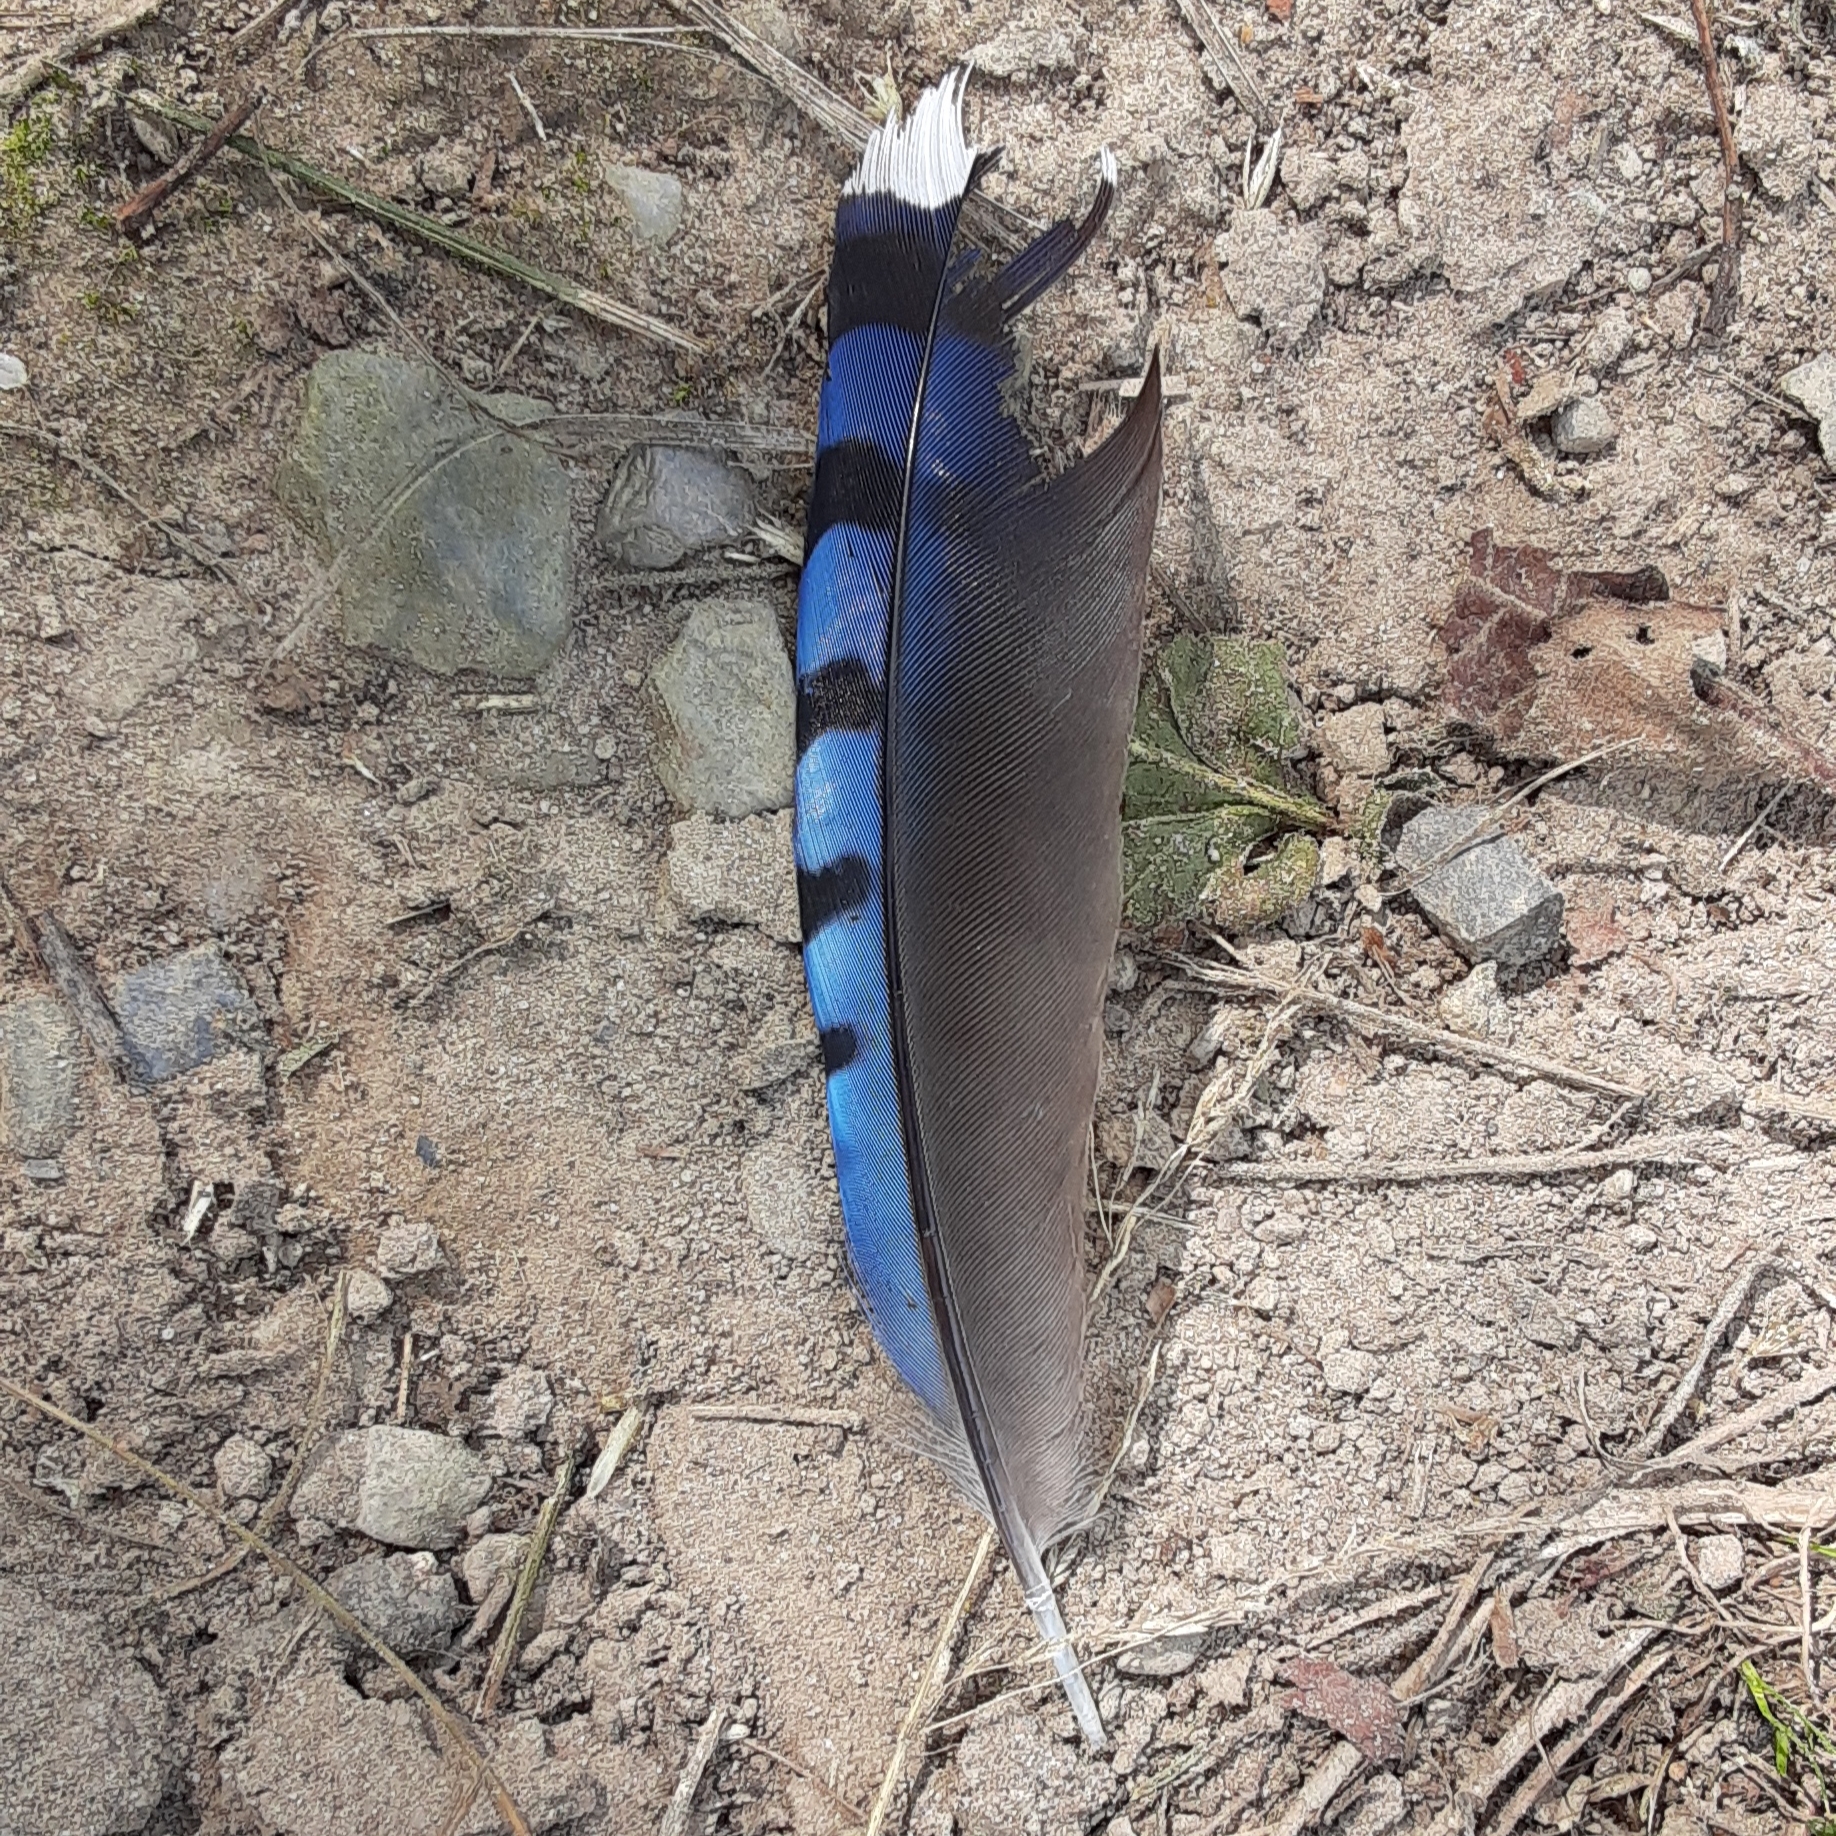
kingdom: Animalia
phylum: Chordata
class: Aves
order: Passeriformes
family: Corvidae
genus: Cyanocitta
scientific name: Cyanocitta cristata
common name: Blue jay
